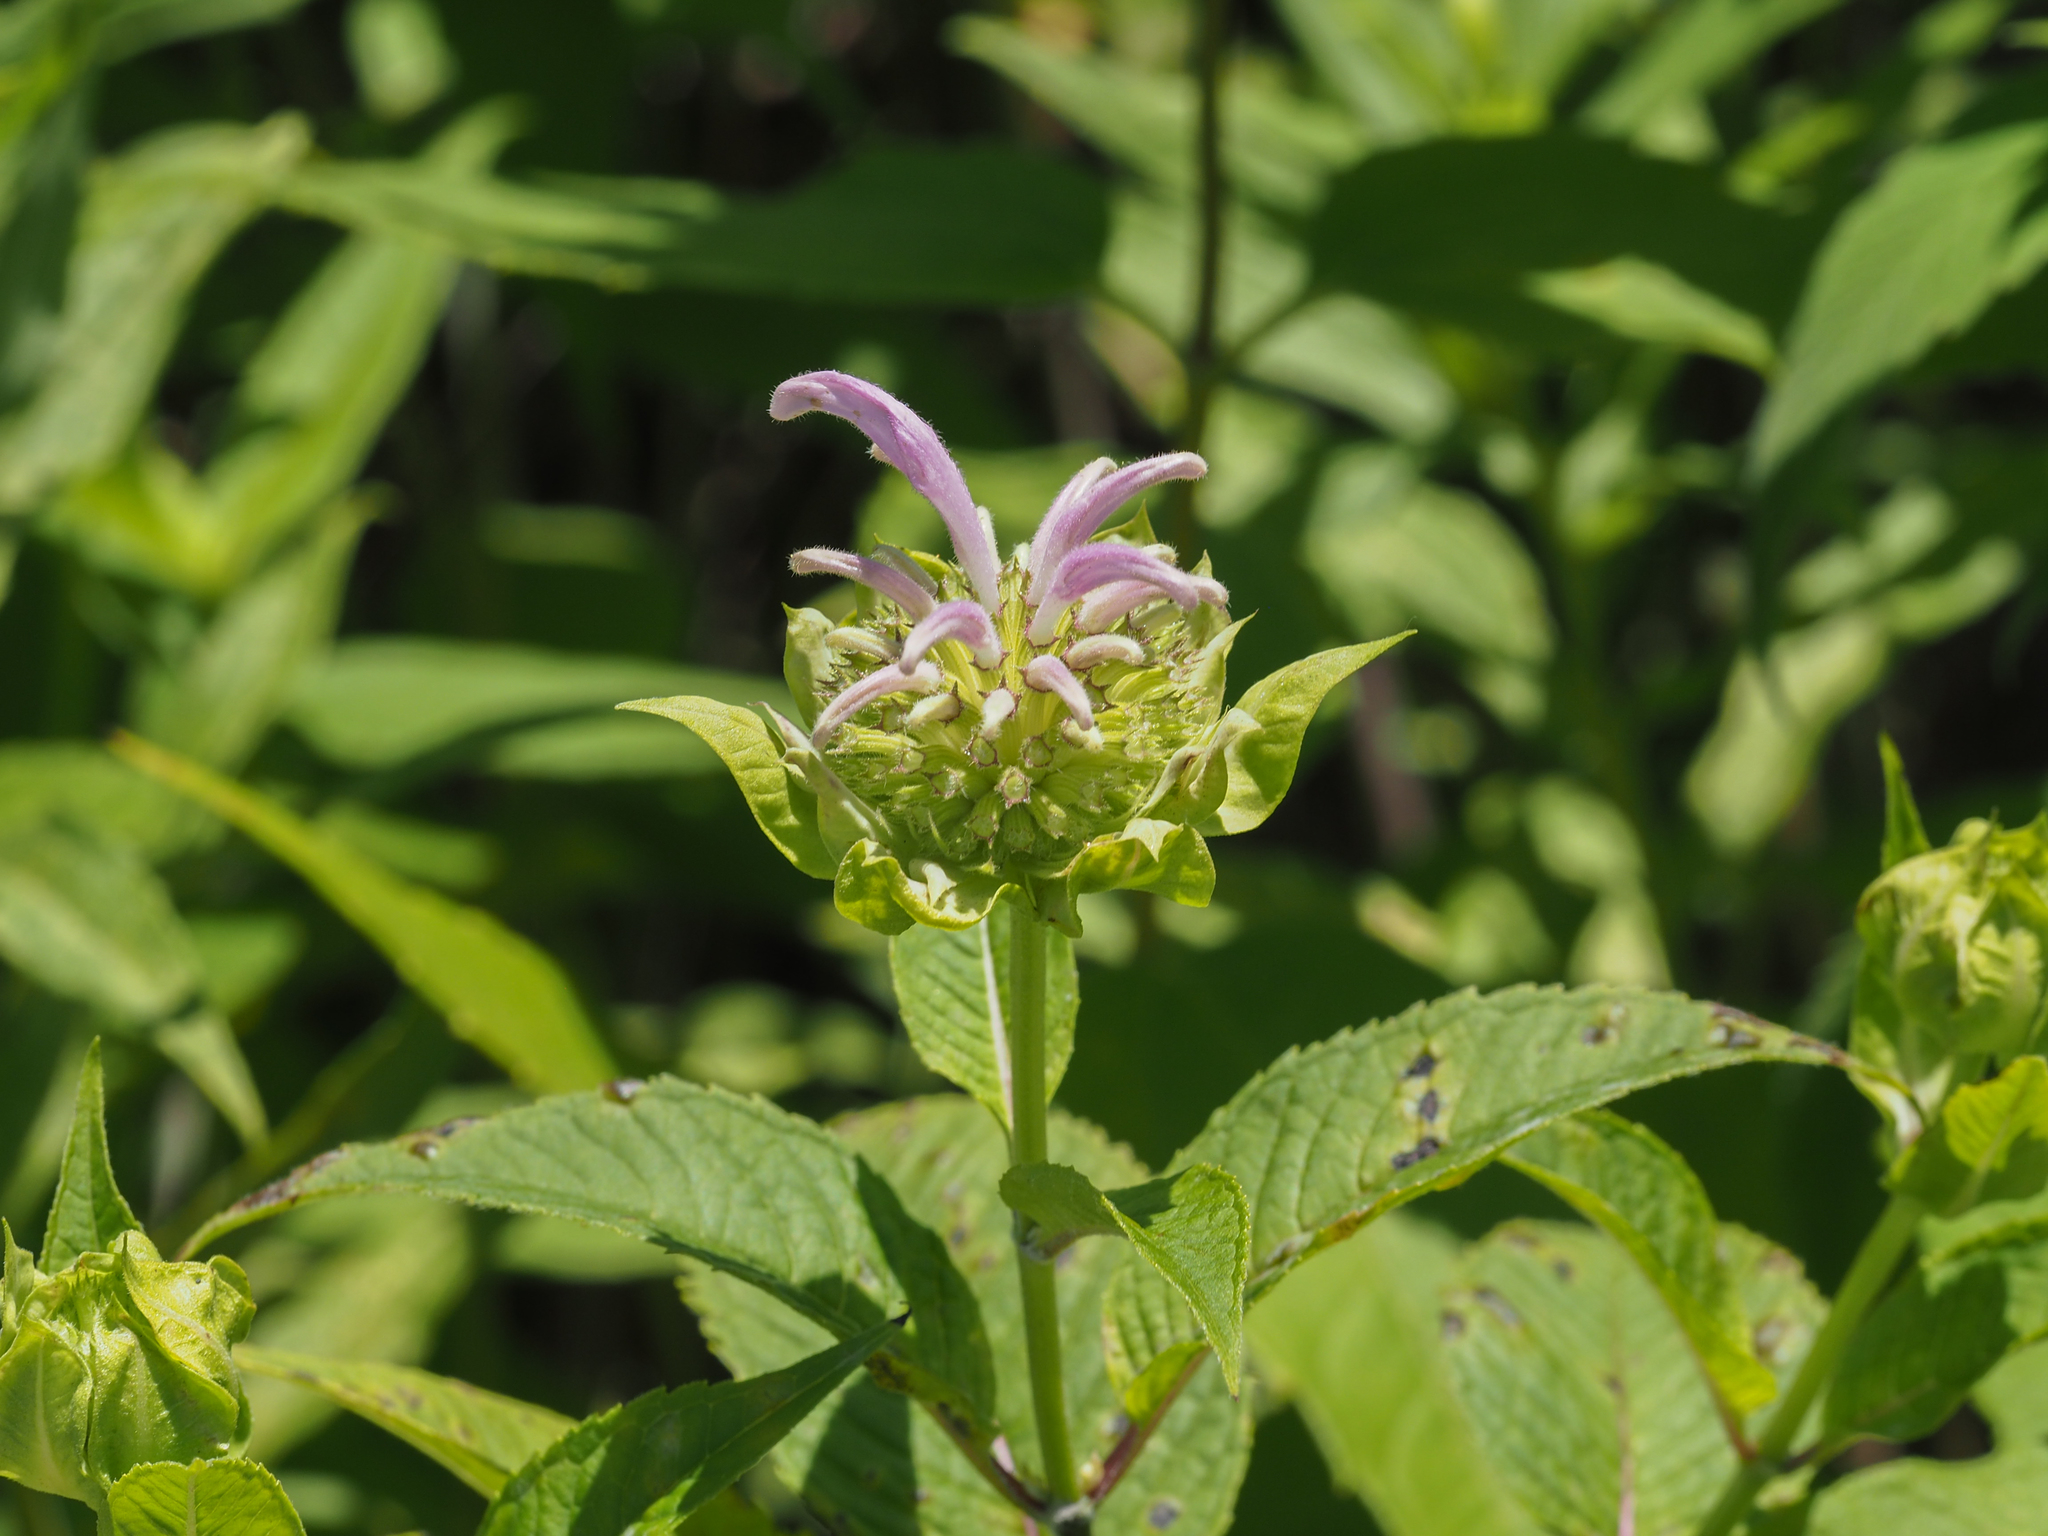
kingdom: Plantae
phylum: Tracheophyta
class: Magnoliopsida
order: Lamiales
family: Lamiaceae
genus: Monarda
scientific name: Monarda fistulosa
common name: Purple beebalm
